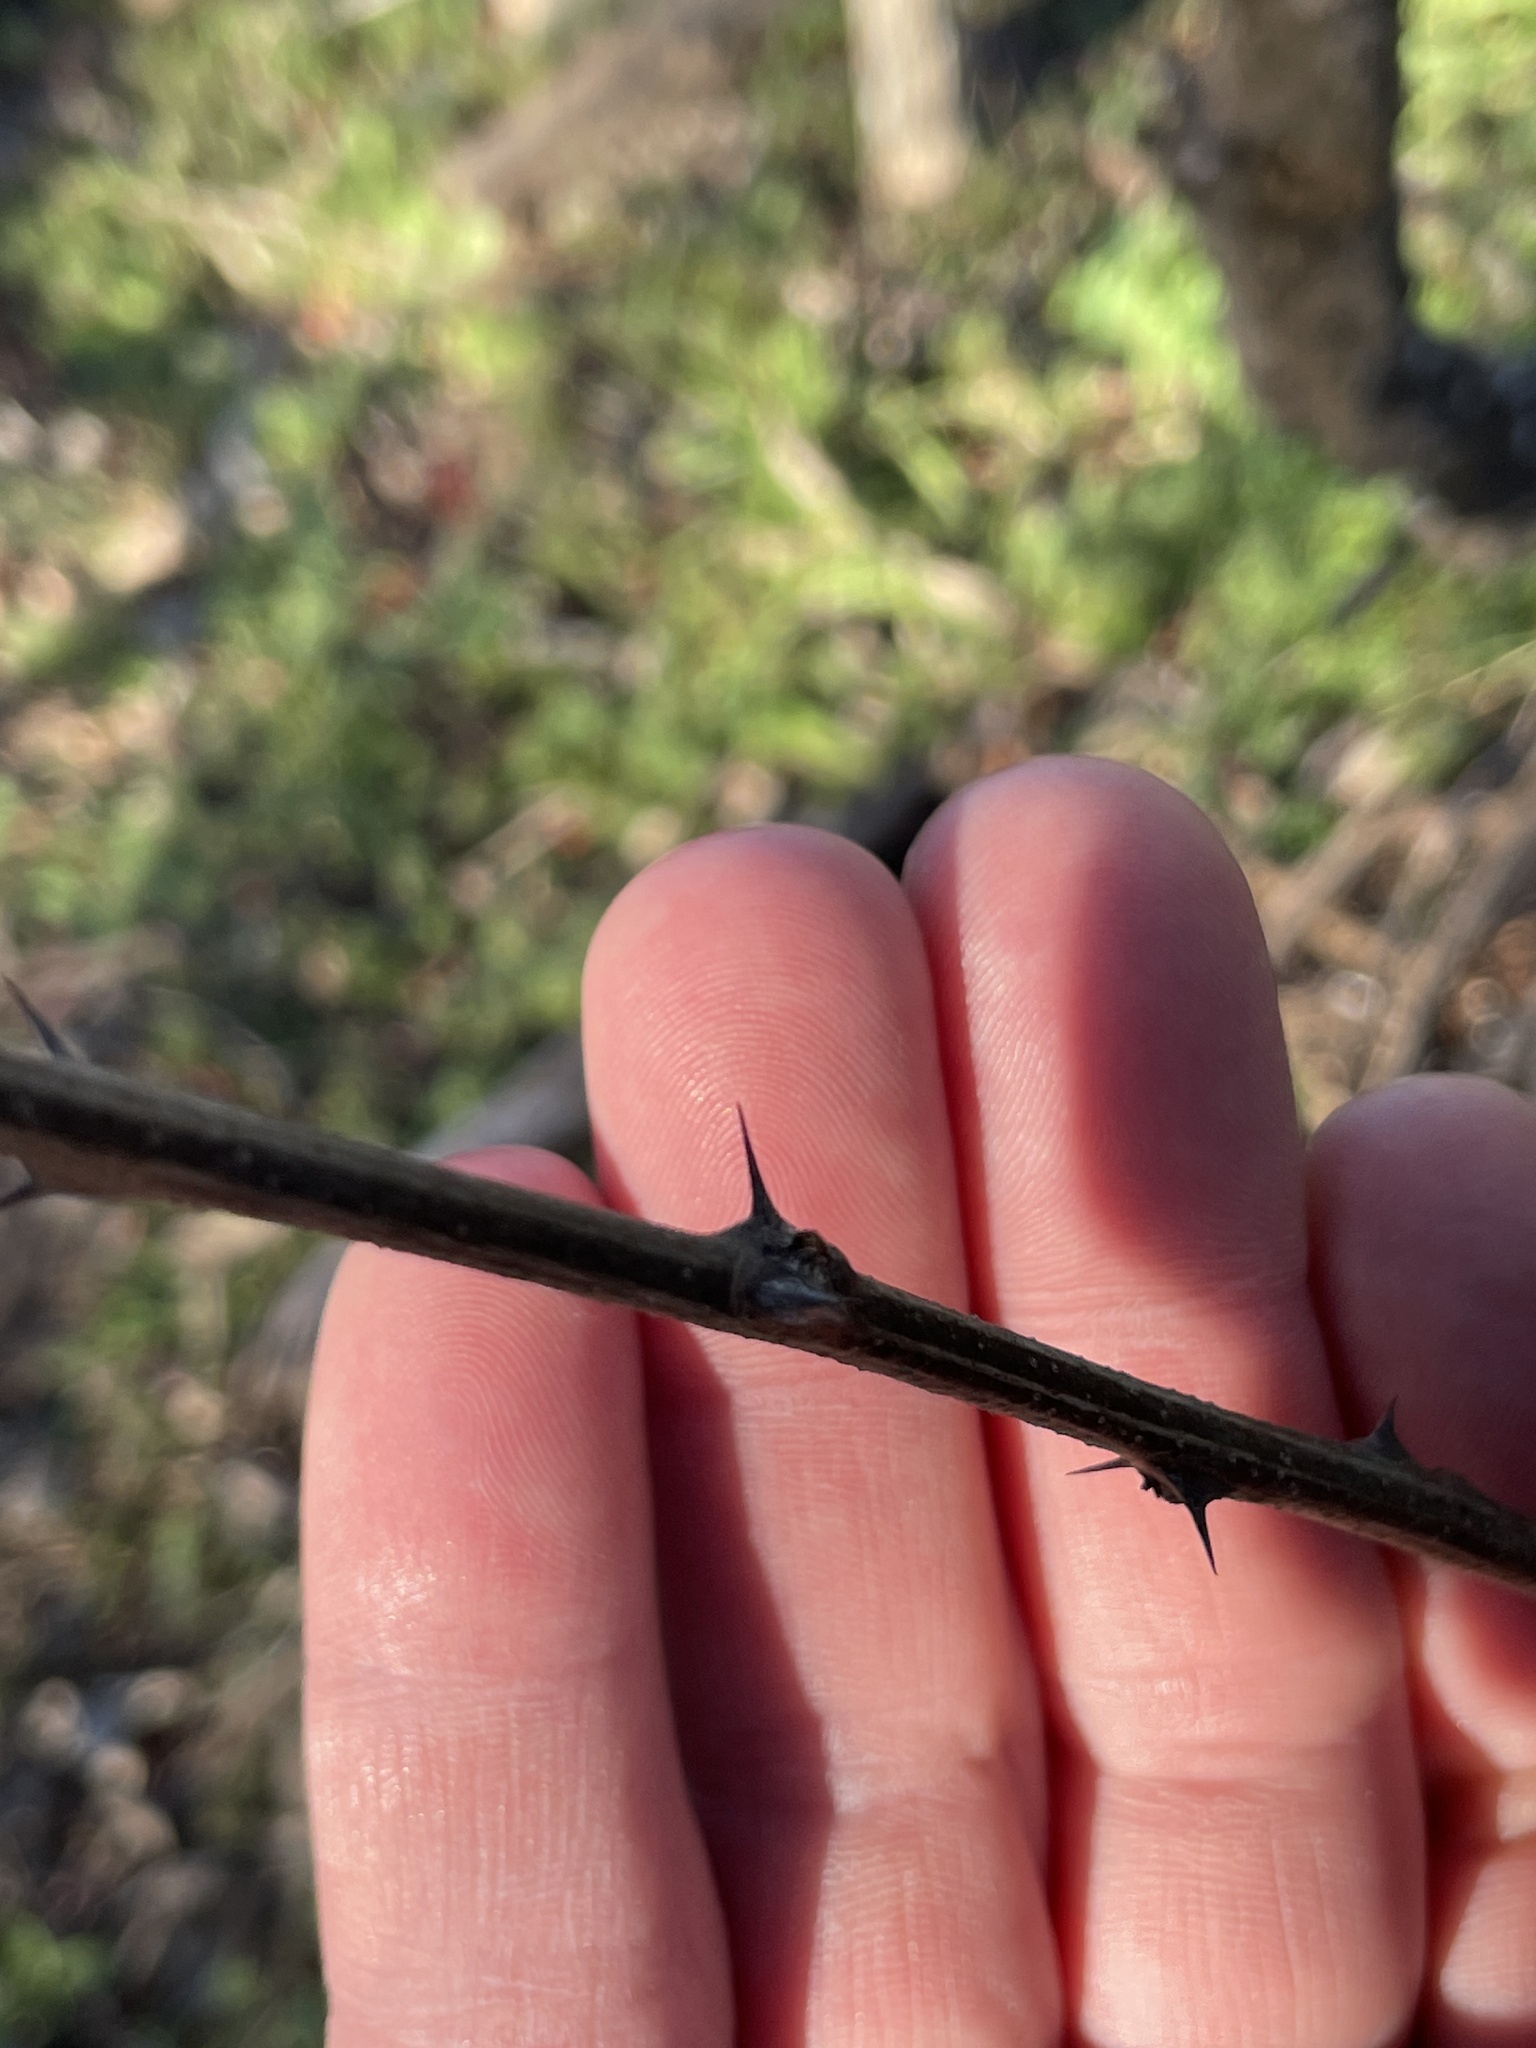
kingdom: Plantae
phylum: Tracheophyta
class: Magnoliopsida
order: Fabales
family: Fabaceae
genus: Robinia
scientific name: Robinia pseudoacacia
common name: Black locust
